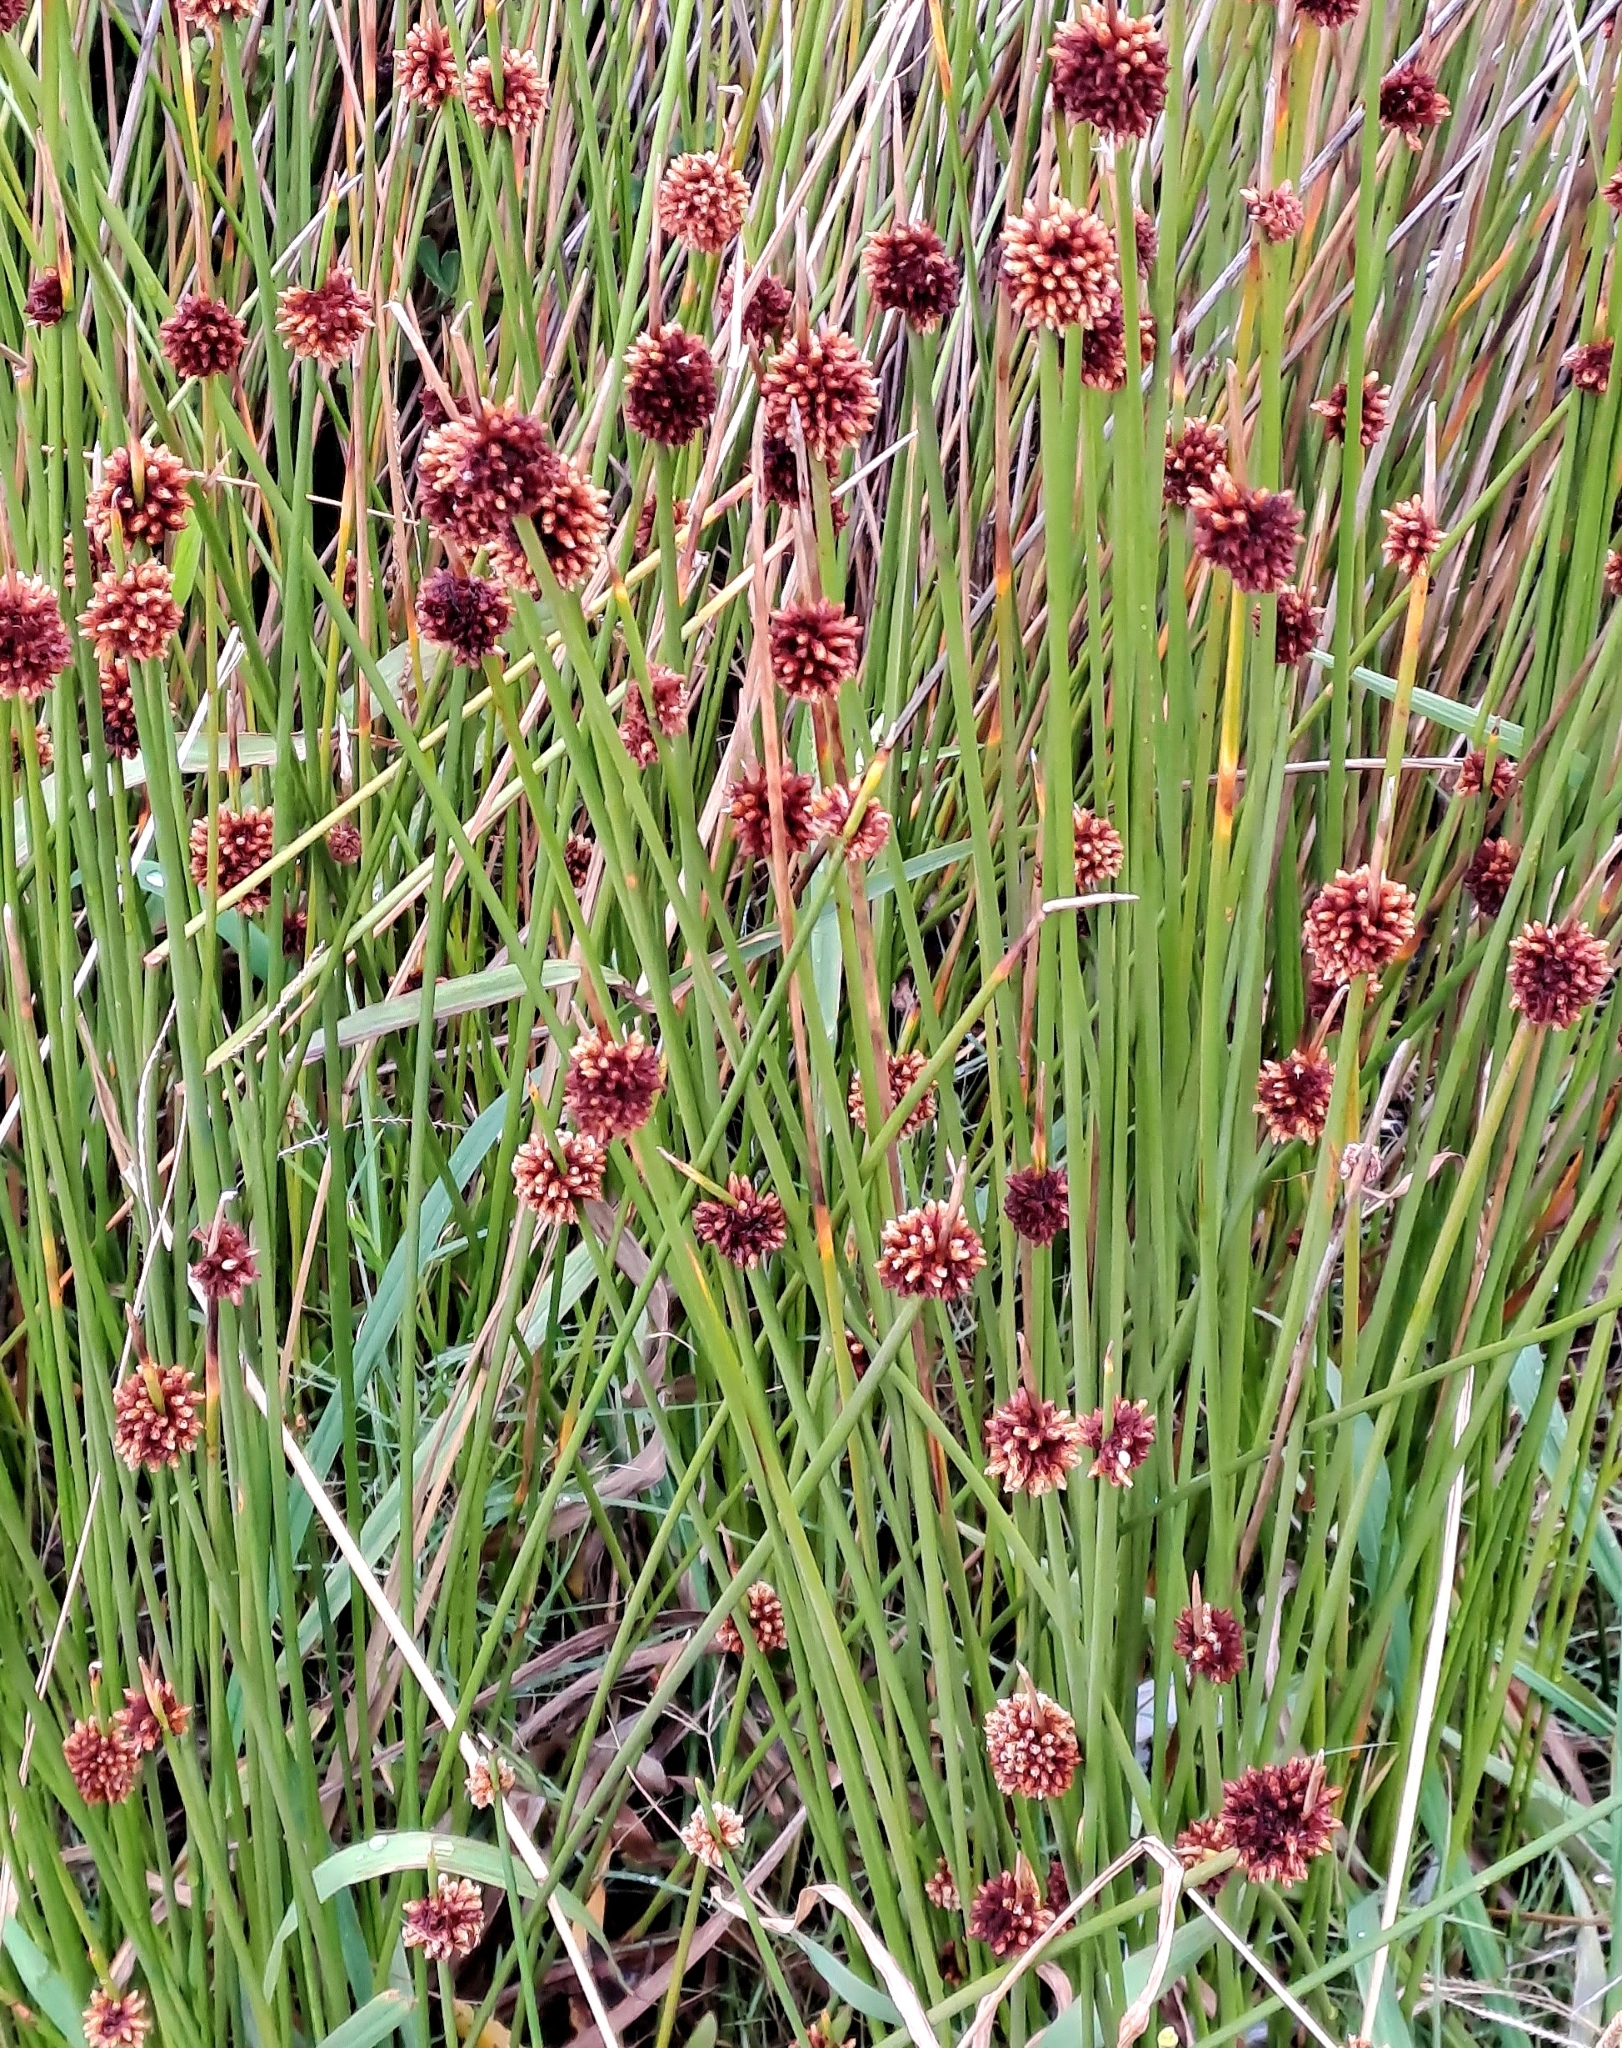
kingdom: Plantae
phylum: Tracheophyta
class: Liliopsida
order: Poales
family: Cyperaceae
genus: Ficinia
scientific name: Ficinia nodosa
